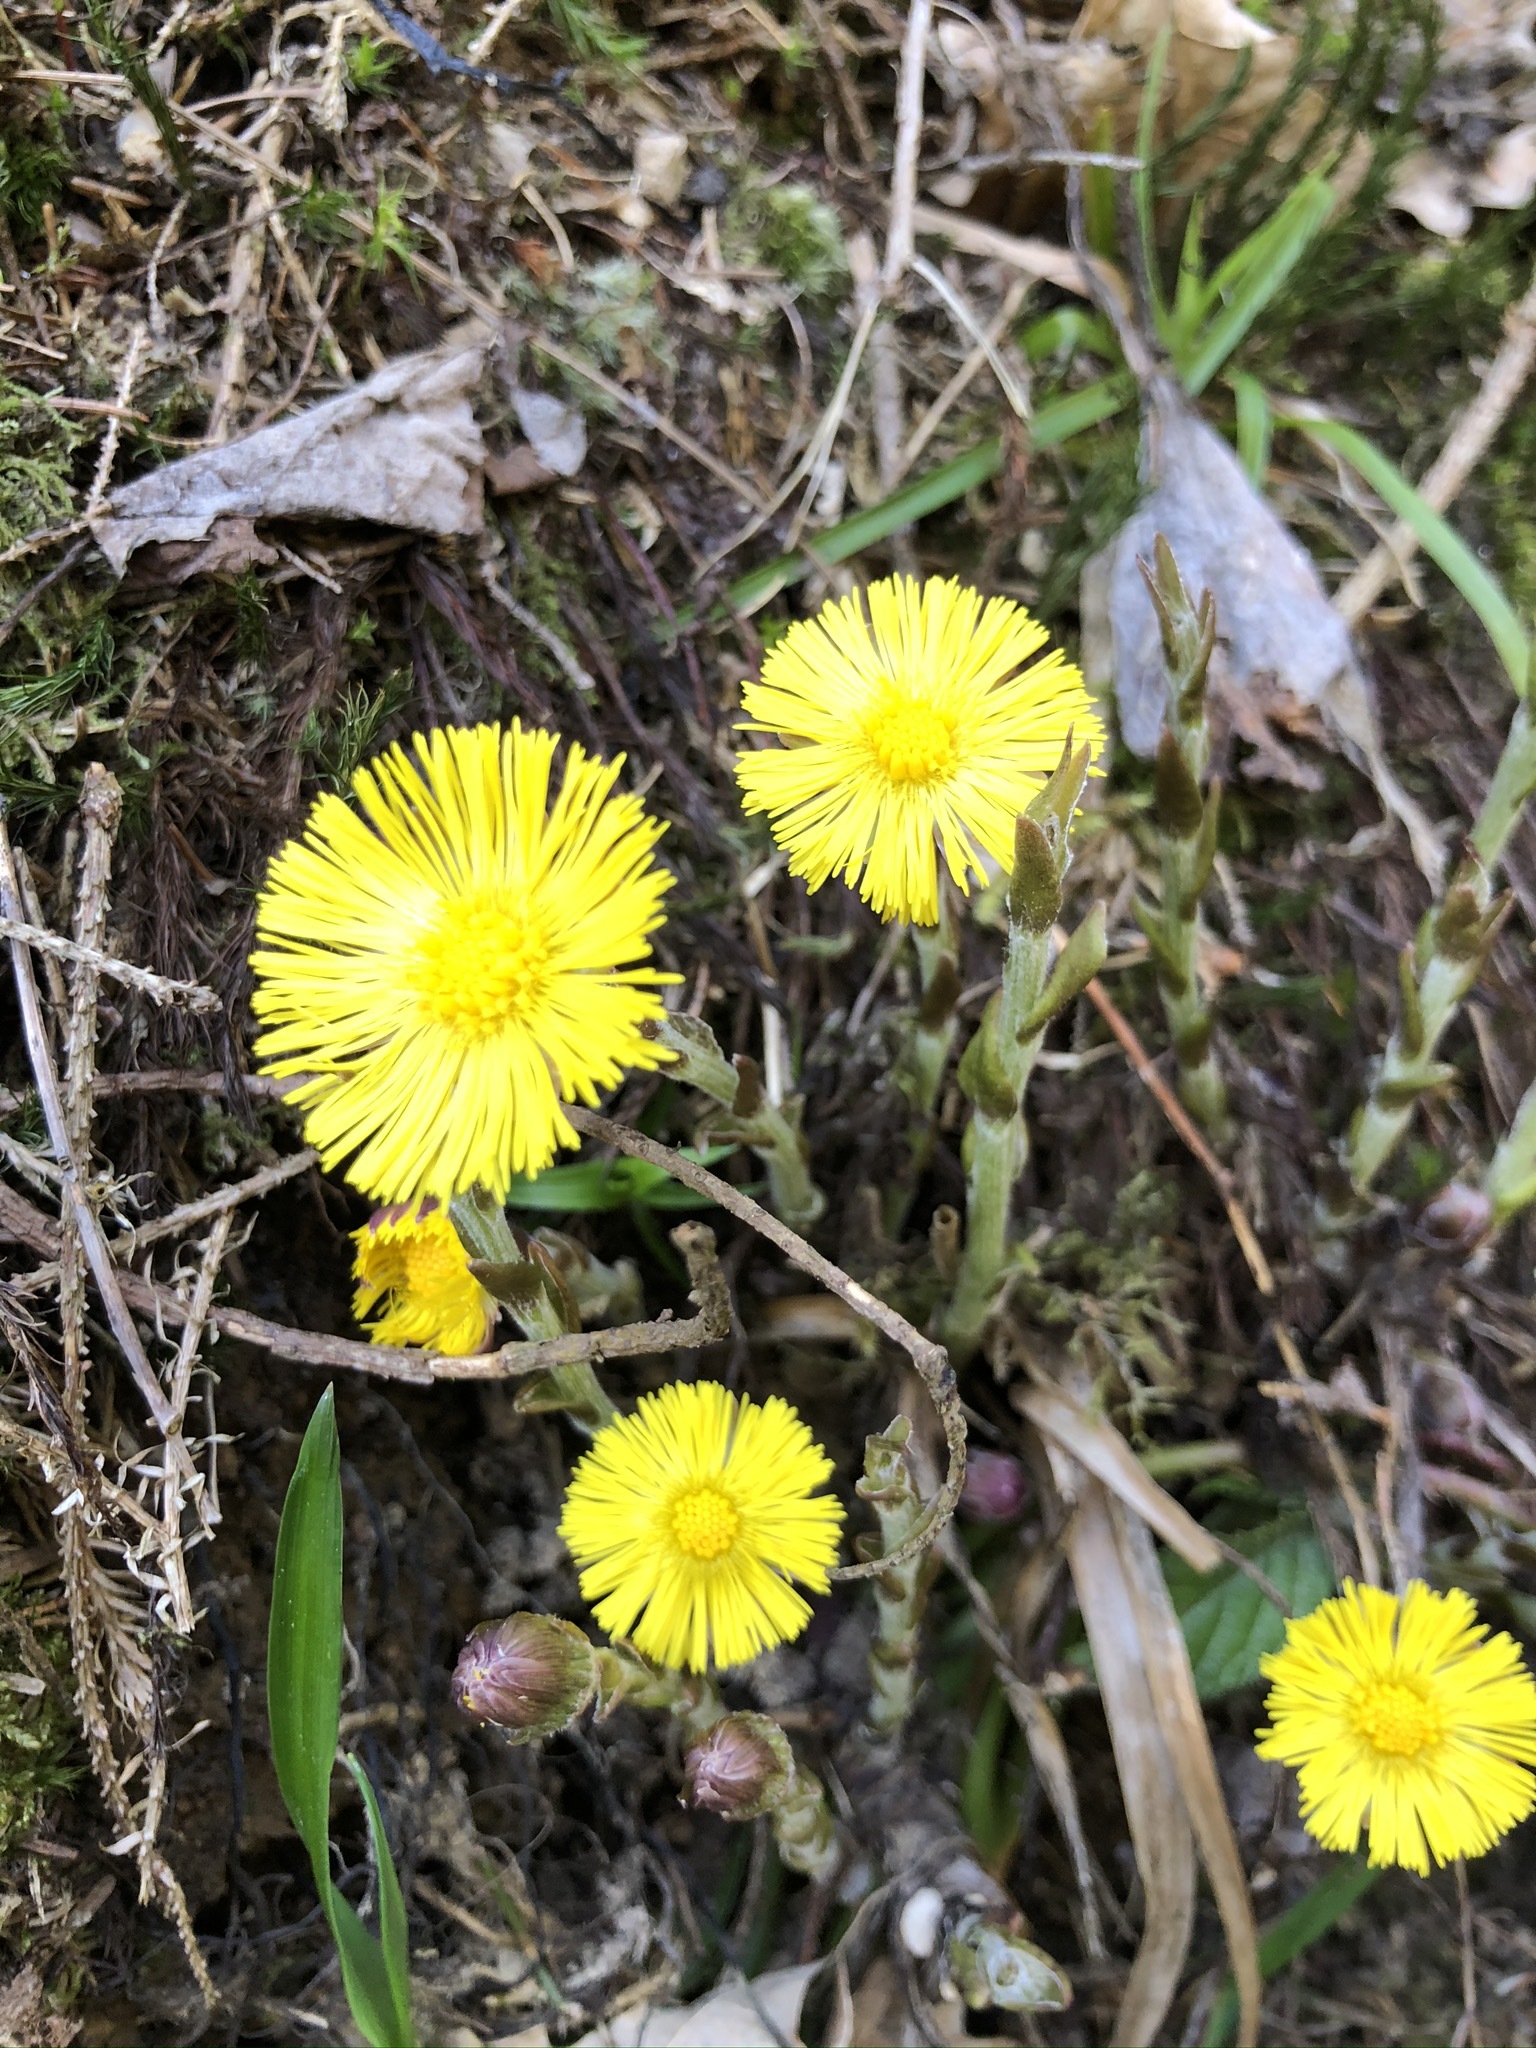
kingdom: Plantae
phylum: Tracheophyta
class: Magnoliopsida
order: Asterales
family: Asteraceae
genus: Tussilago
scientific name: Tussilago farfara
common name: Coltsfoot
